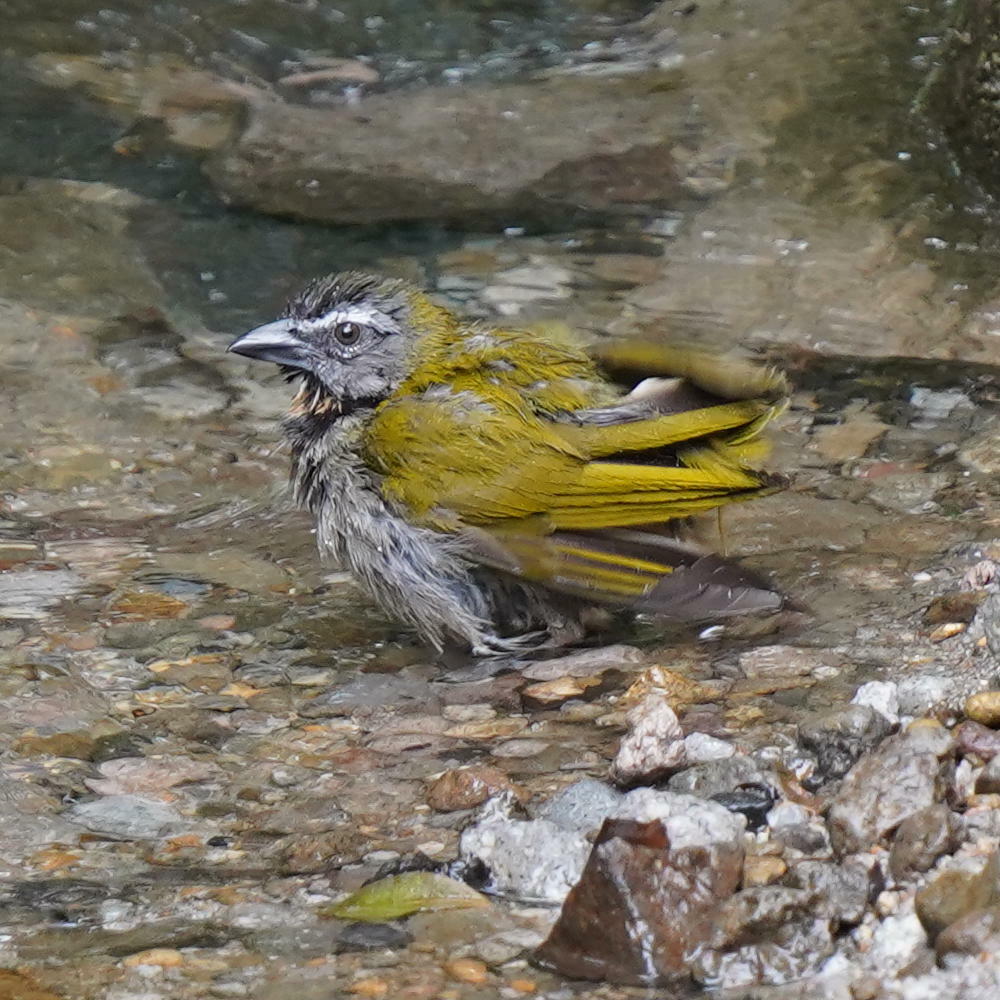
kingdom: Animalia
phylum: Chordata
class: Aves
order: Passeriformes
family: Thraupidae
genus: Saltator
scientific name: Saltator maximus
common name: Buff-throated saltator
